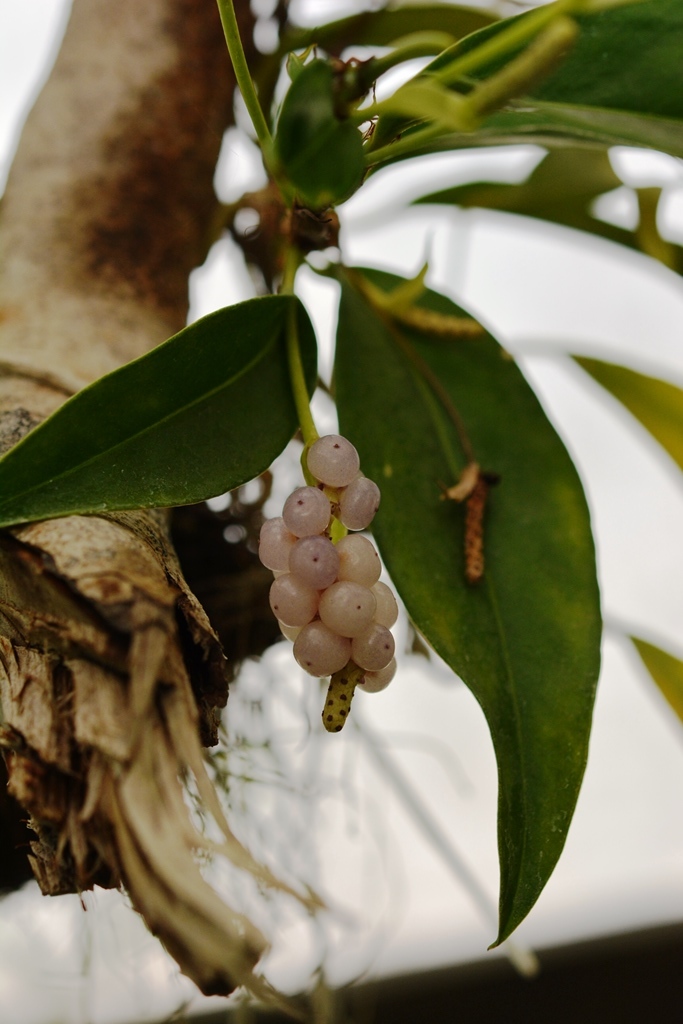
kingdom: Plantae
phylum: Tracheophyta
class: Liliopsida
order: Alismatales
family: Araceae
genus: Anthurium
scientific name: Anthurium scandens
